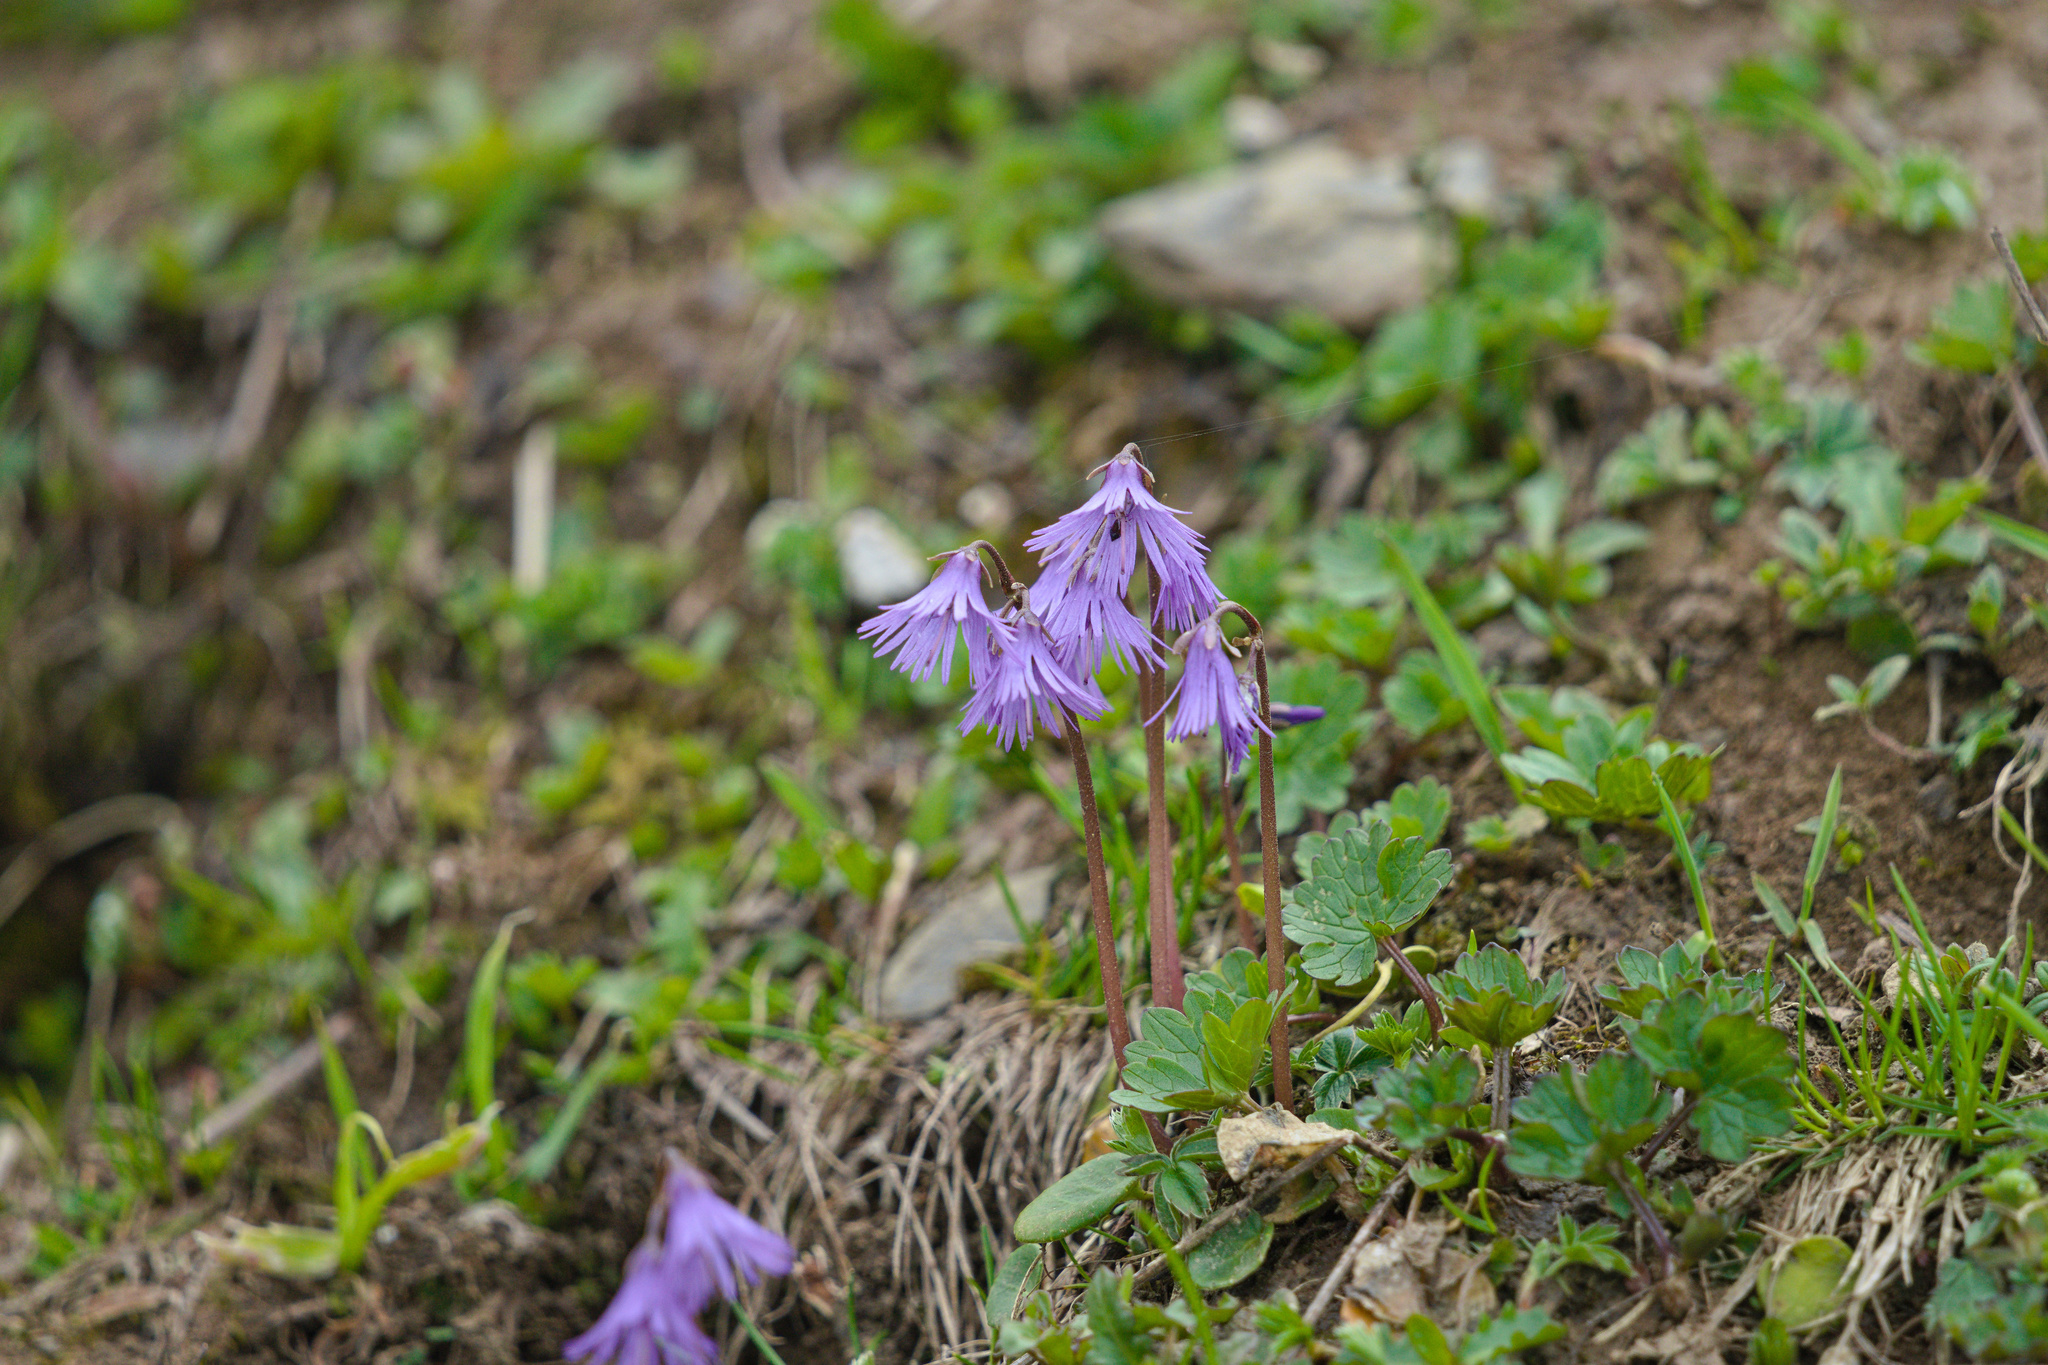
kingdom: Plantae
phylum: Tracheophyta
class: Magnoliopsida
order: Ericales
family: Primulaceae
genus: Soldanella
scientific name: Soldanella alpina
